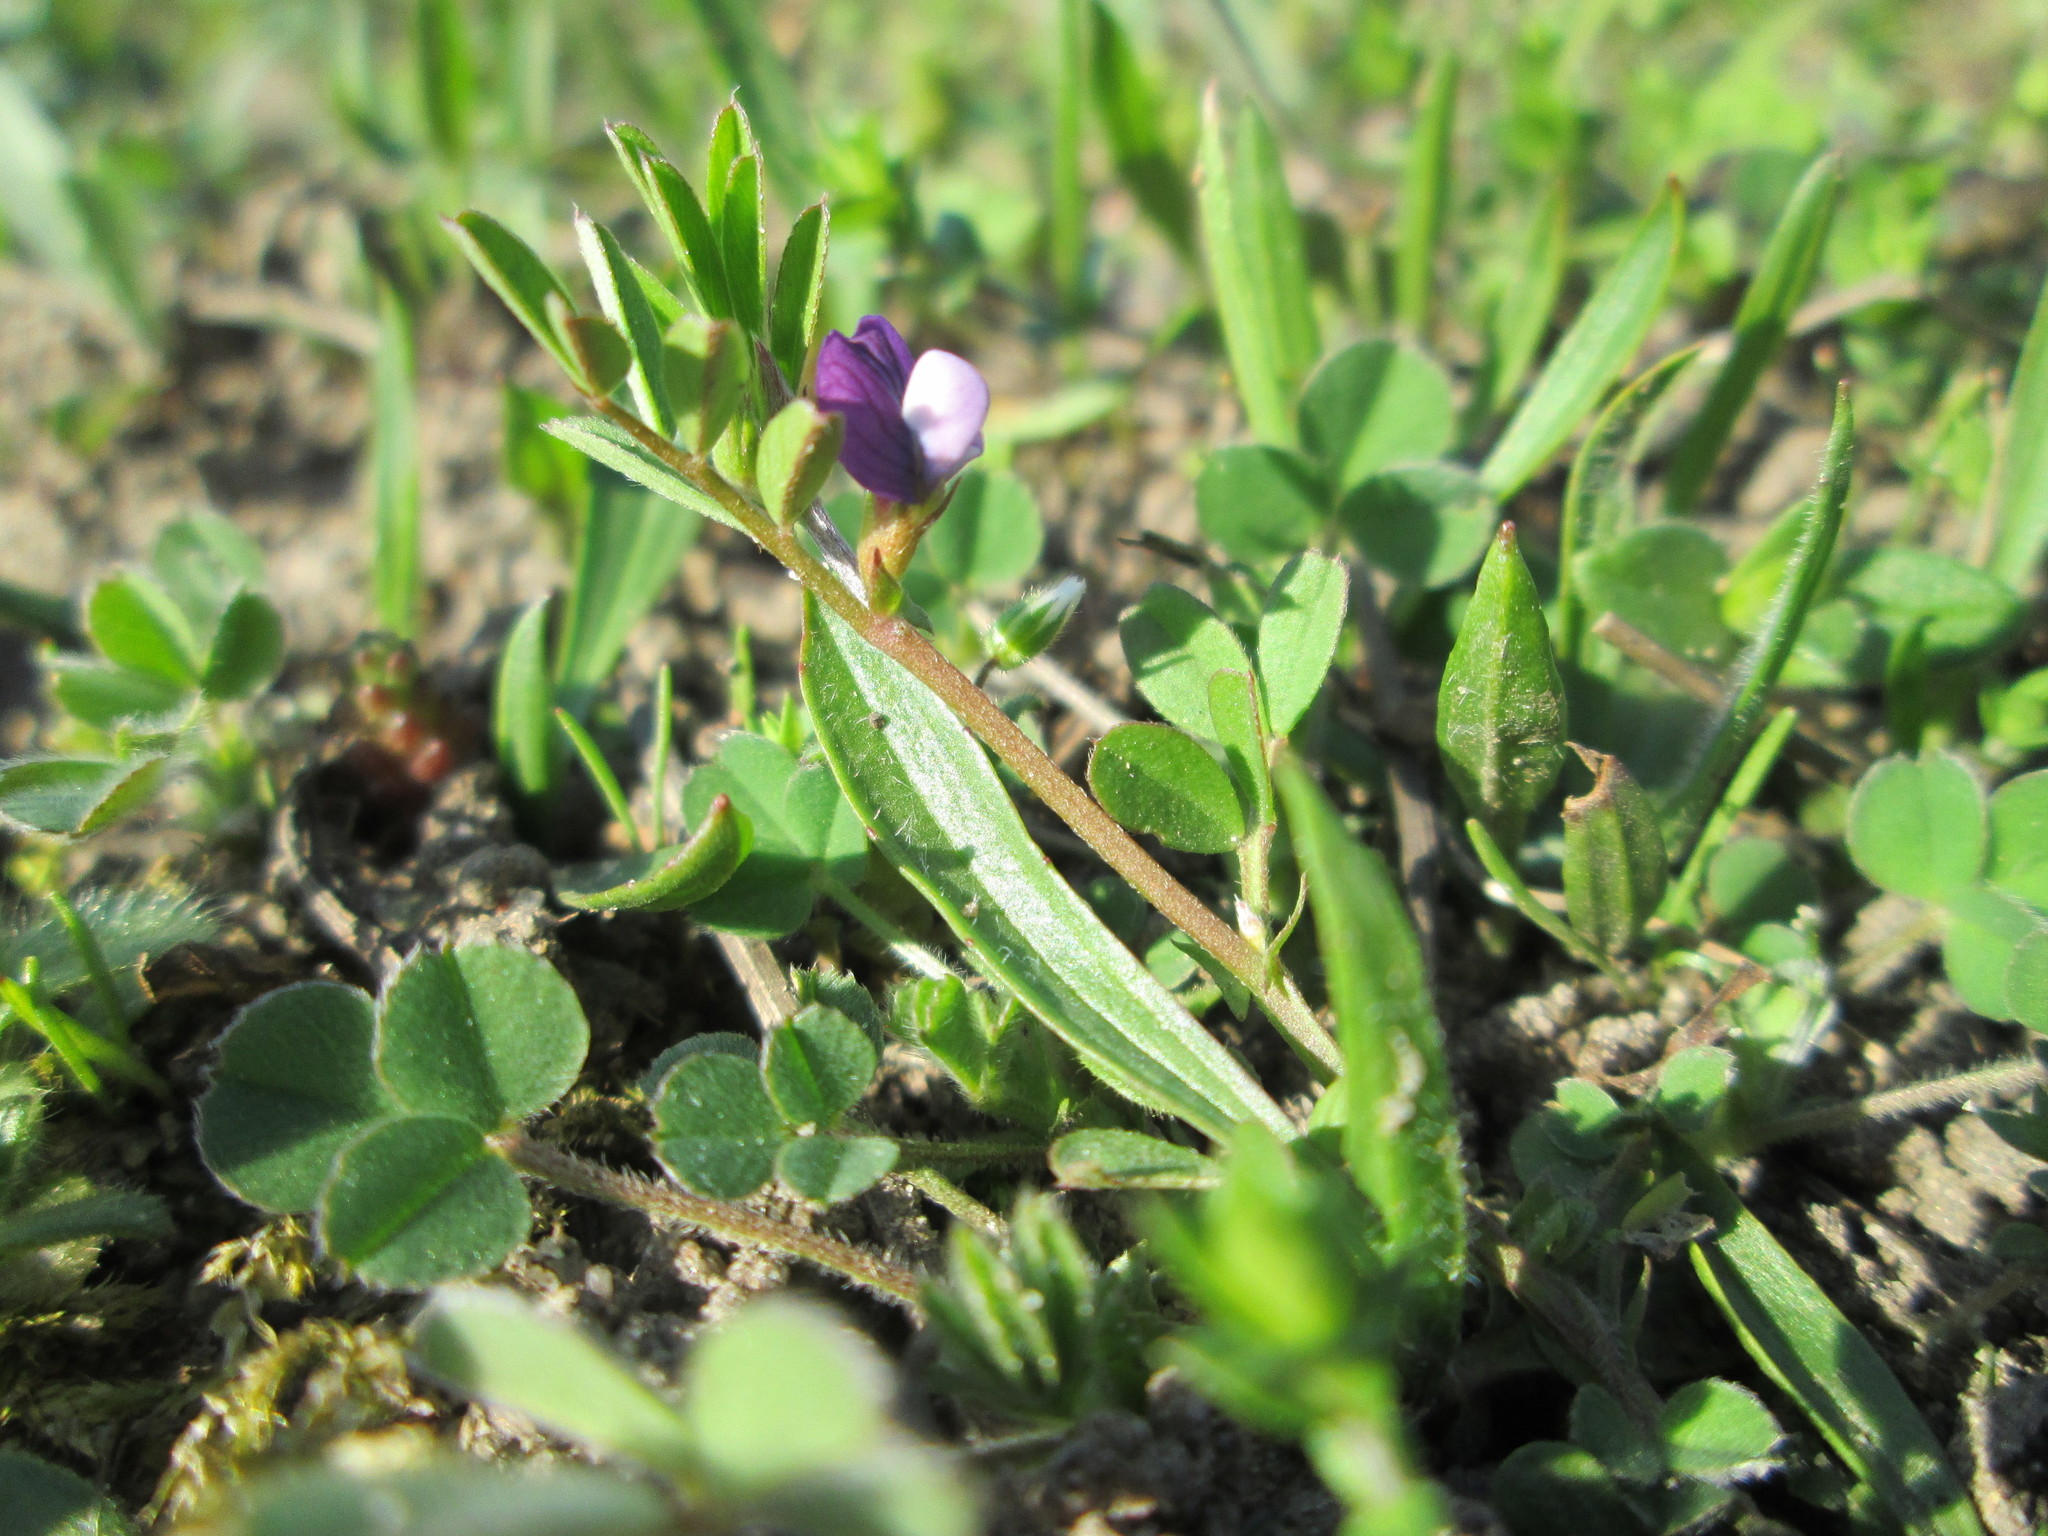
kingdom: Plantae
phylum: Tracheophyta
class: Magnoliopsida
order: Fabales
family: Fabaceae
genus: Vicia
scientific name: Vicia lathyroides
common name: Spring vetch
